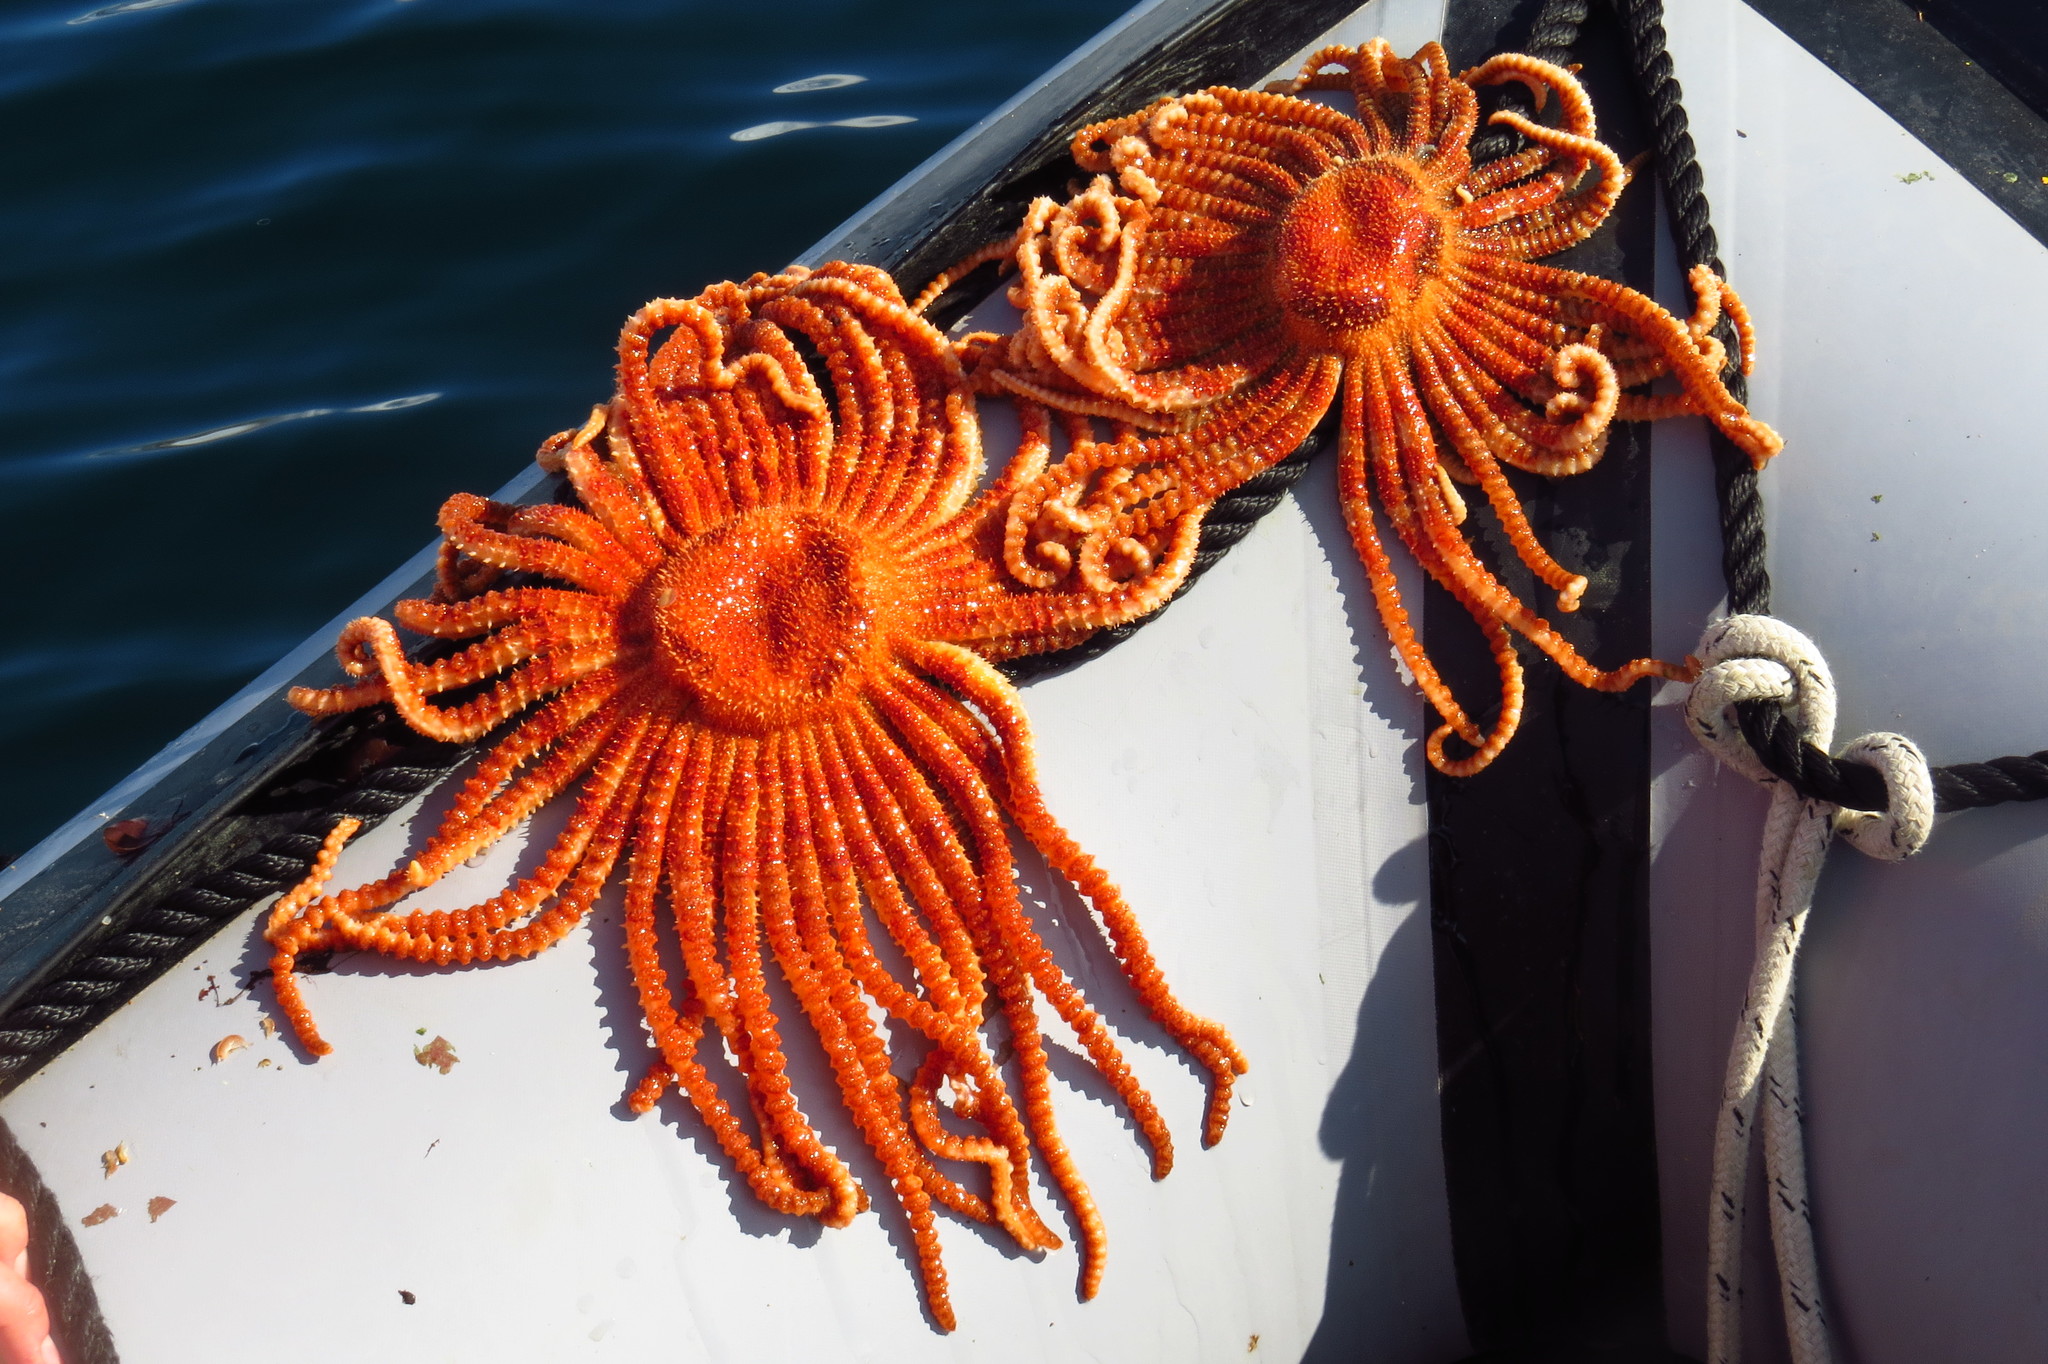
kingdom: Animalia
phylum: Echinodermata
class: Asteroidea
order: Forcipulatida
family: Heliasteridae
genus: Labidiaster
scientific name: Labidiaster annulatus
